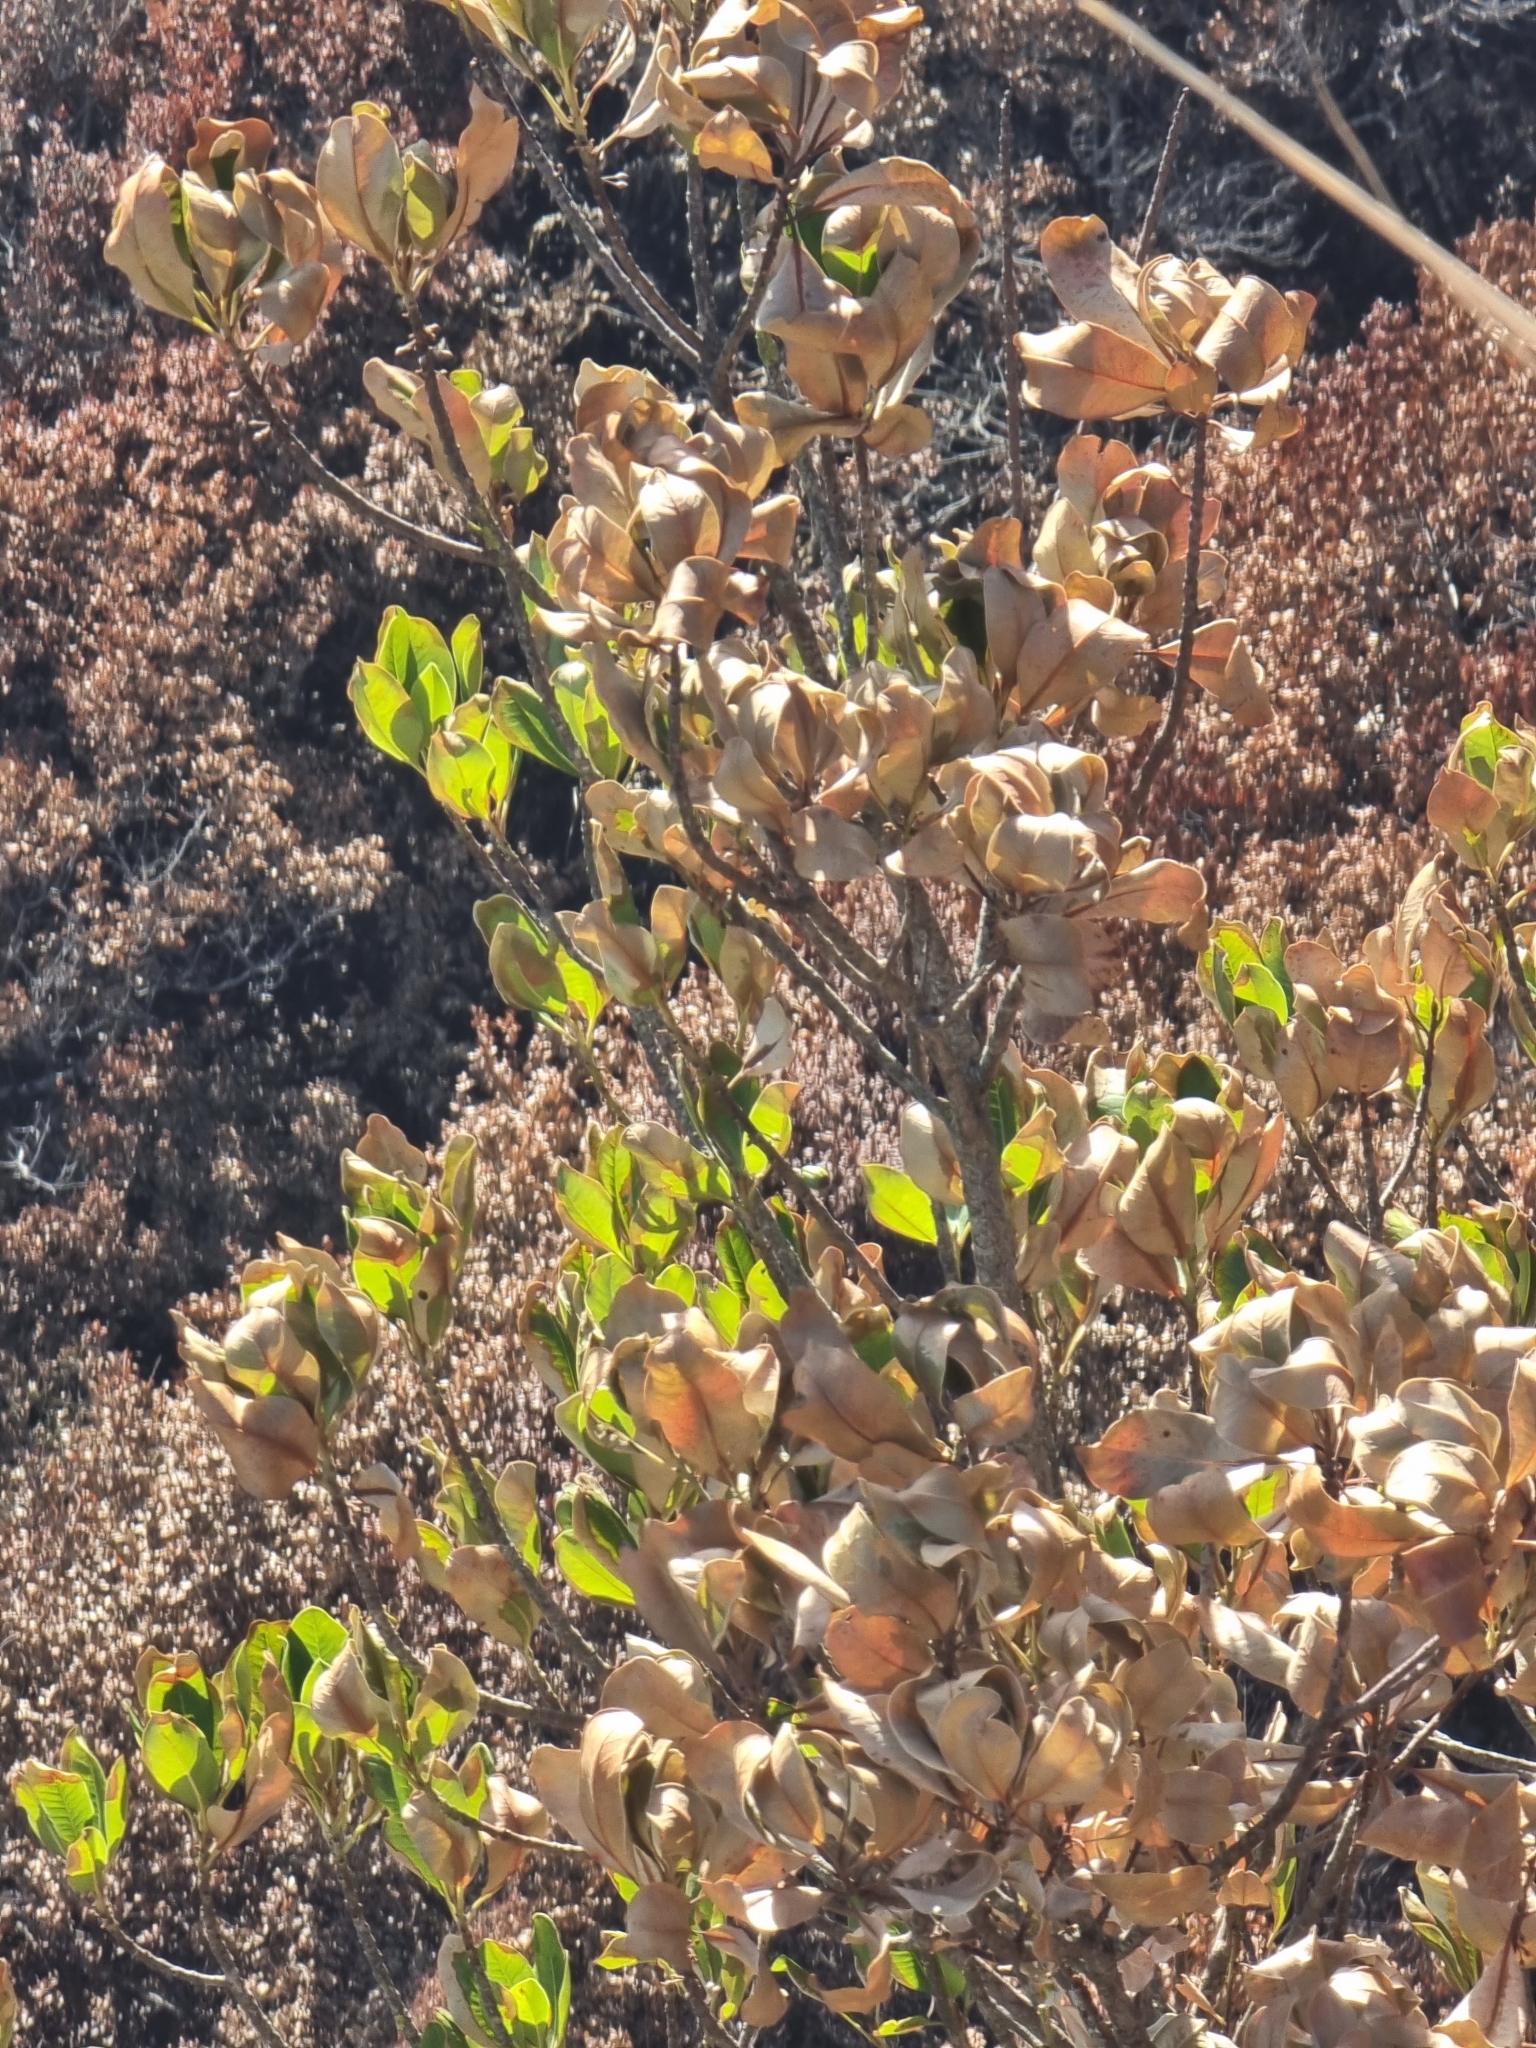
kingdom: Plantae
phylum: Tracheophyta
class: Magnoliopsida
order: Ericales
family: Sapotaceae
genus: Sideroxylon
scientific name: Sideroxylon mirmulans
